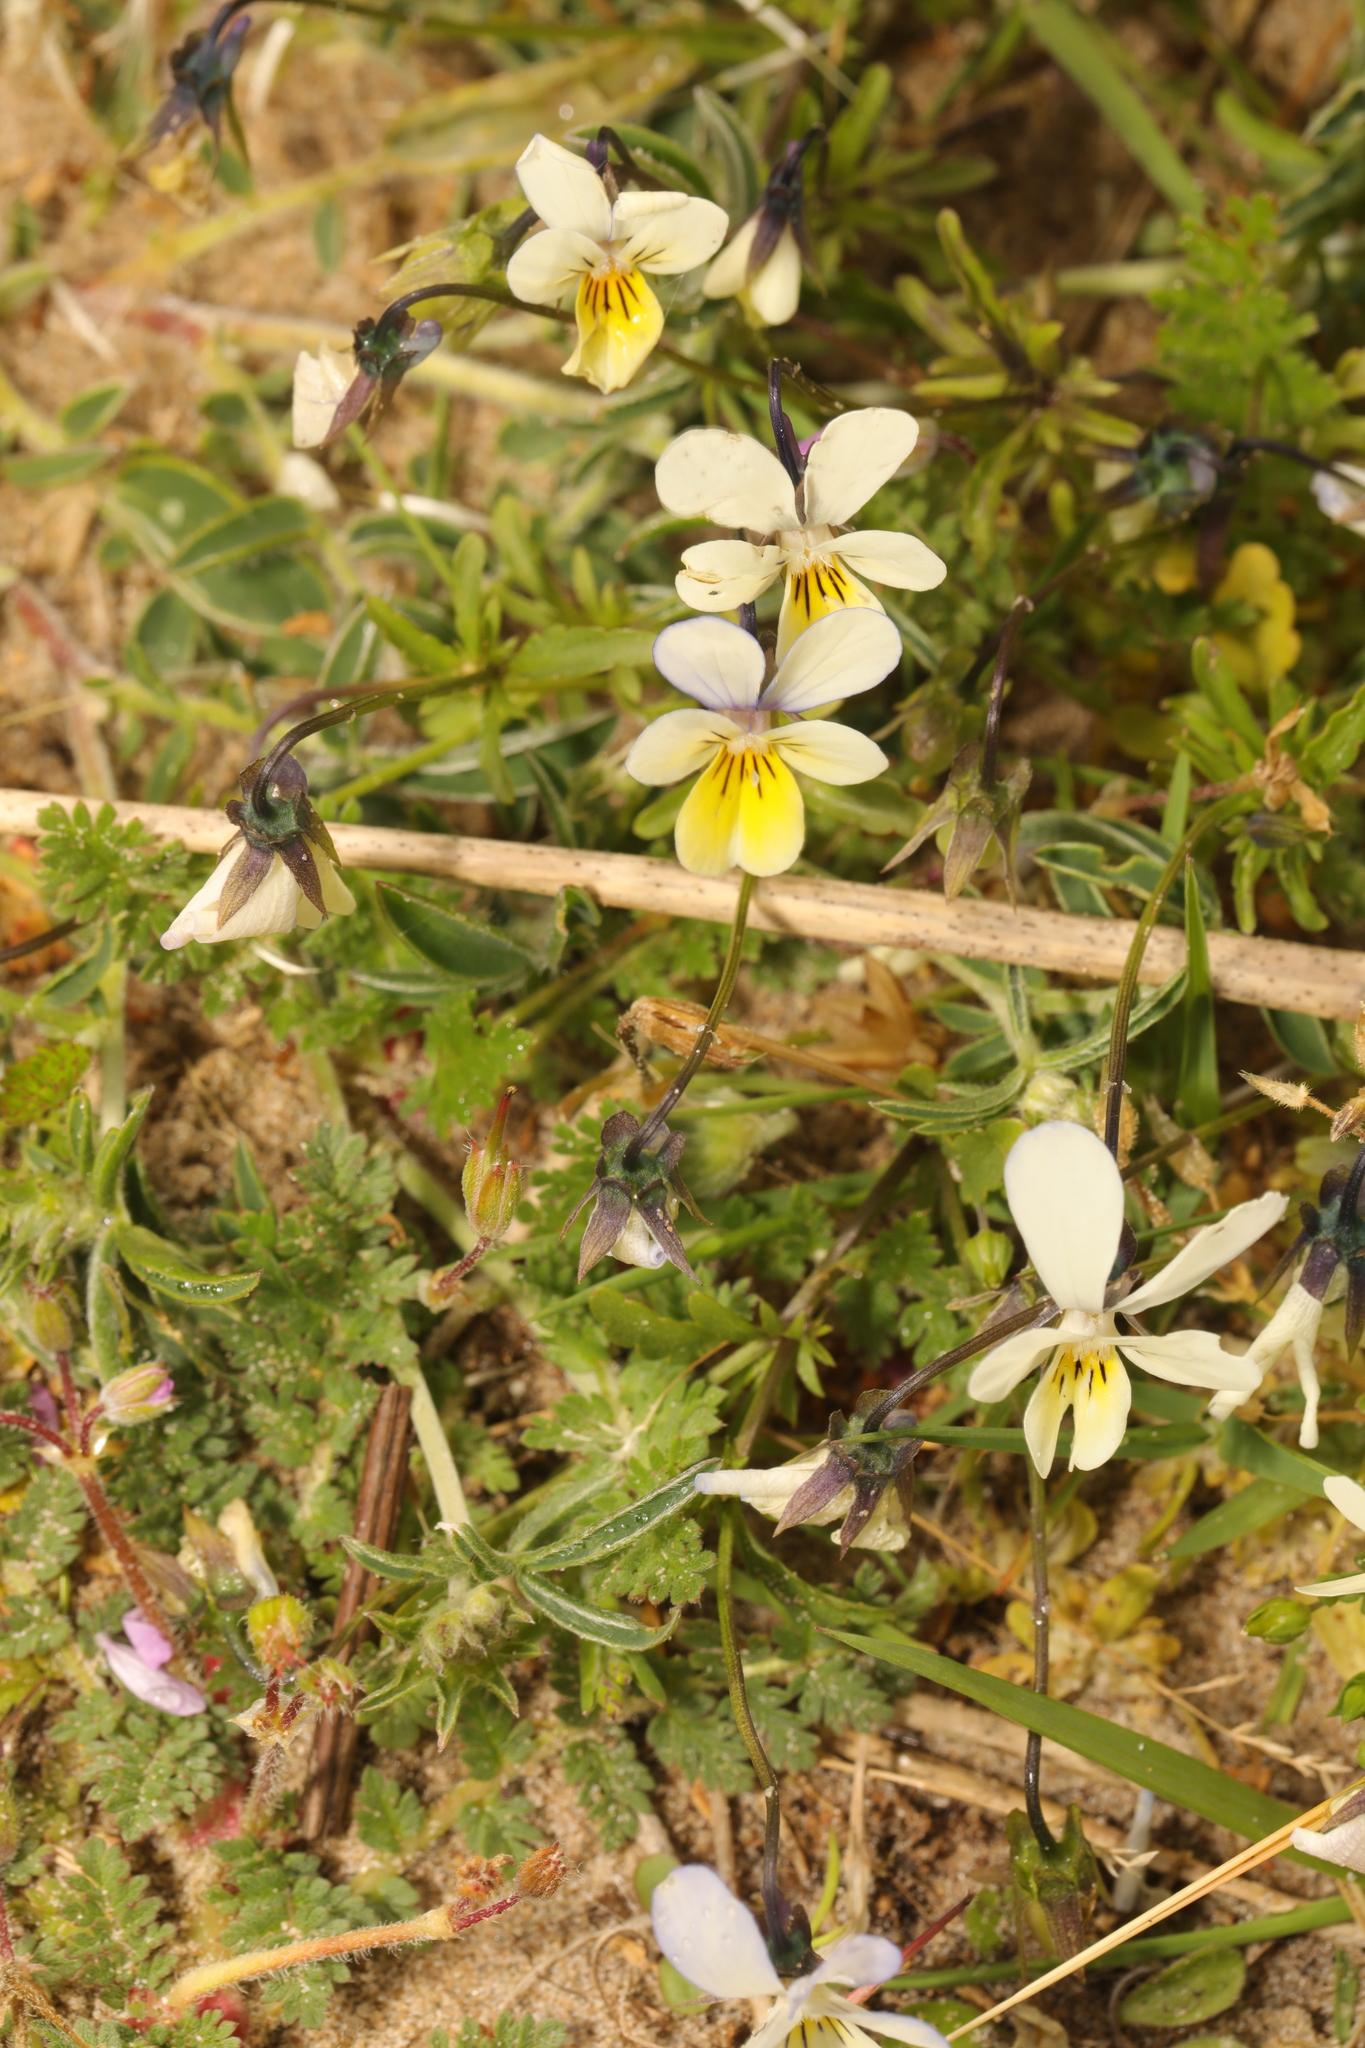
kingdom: Plantae
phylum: Tracheophyta
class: Magnoliopsida
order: Malpighiales
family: Violaceae
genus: Viola
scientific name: Viola tricolor
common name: Pansy
